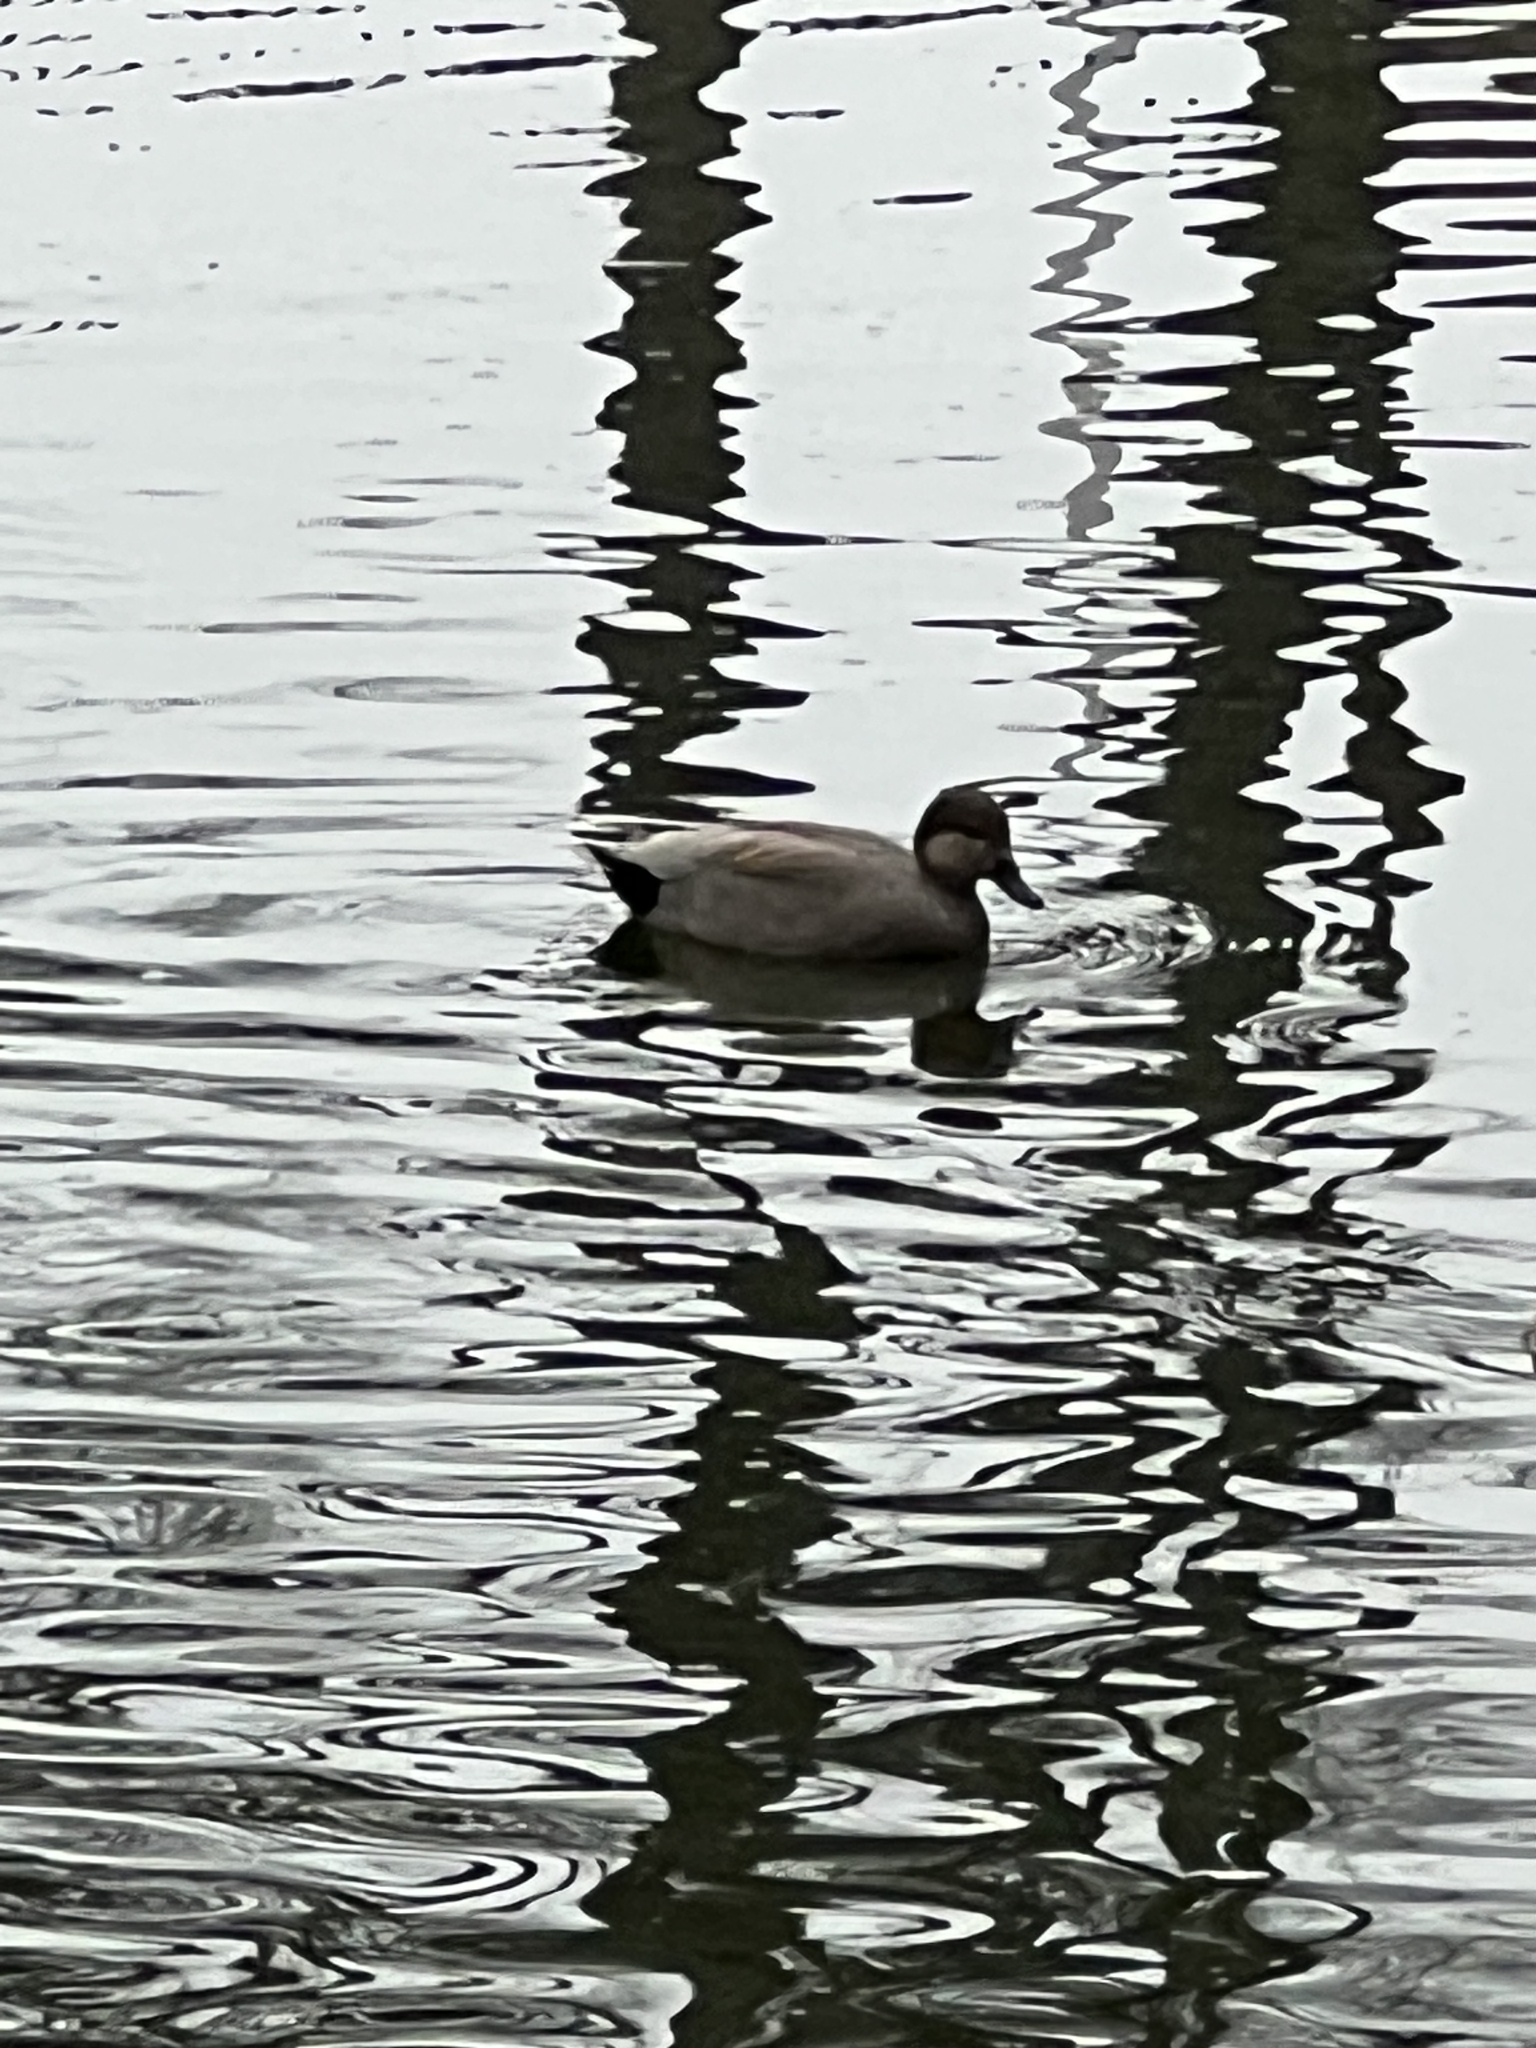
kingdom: Animalia
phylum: Chordata
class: Aves
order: Anseriformes
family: Anatidae
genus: Mareca
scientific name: Mareca strepera
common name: Gadwall
